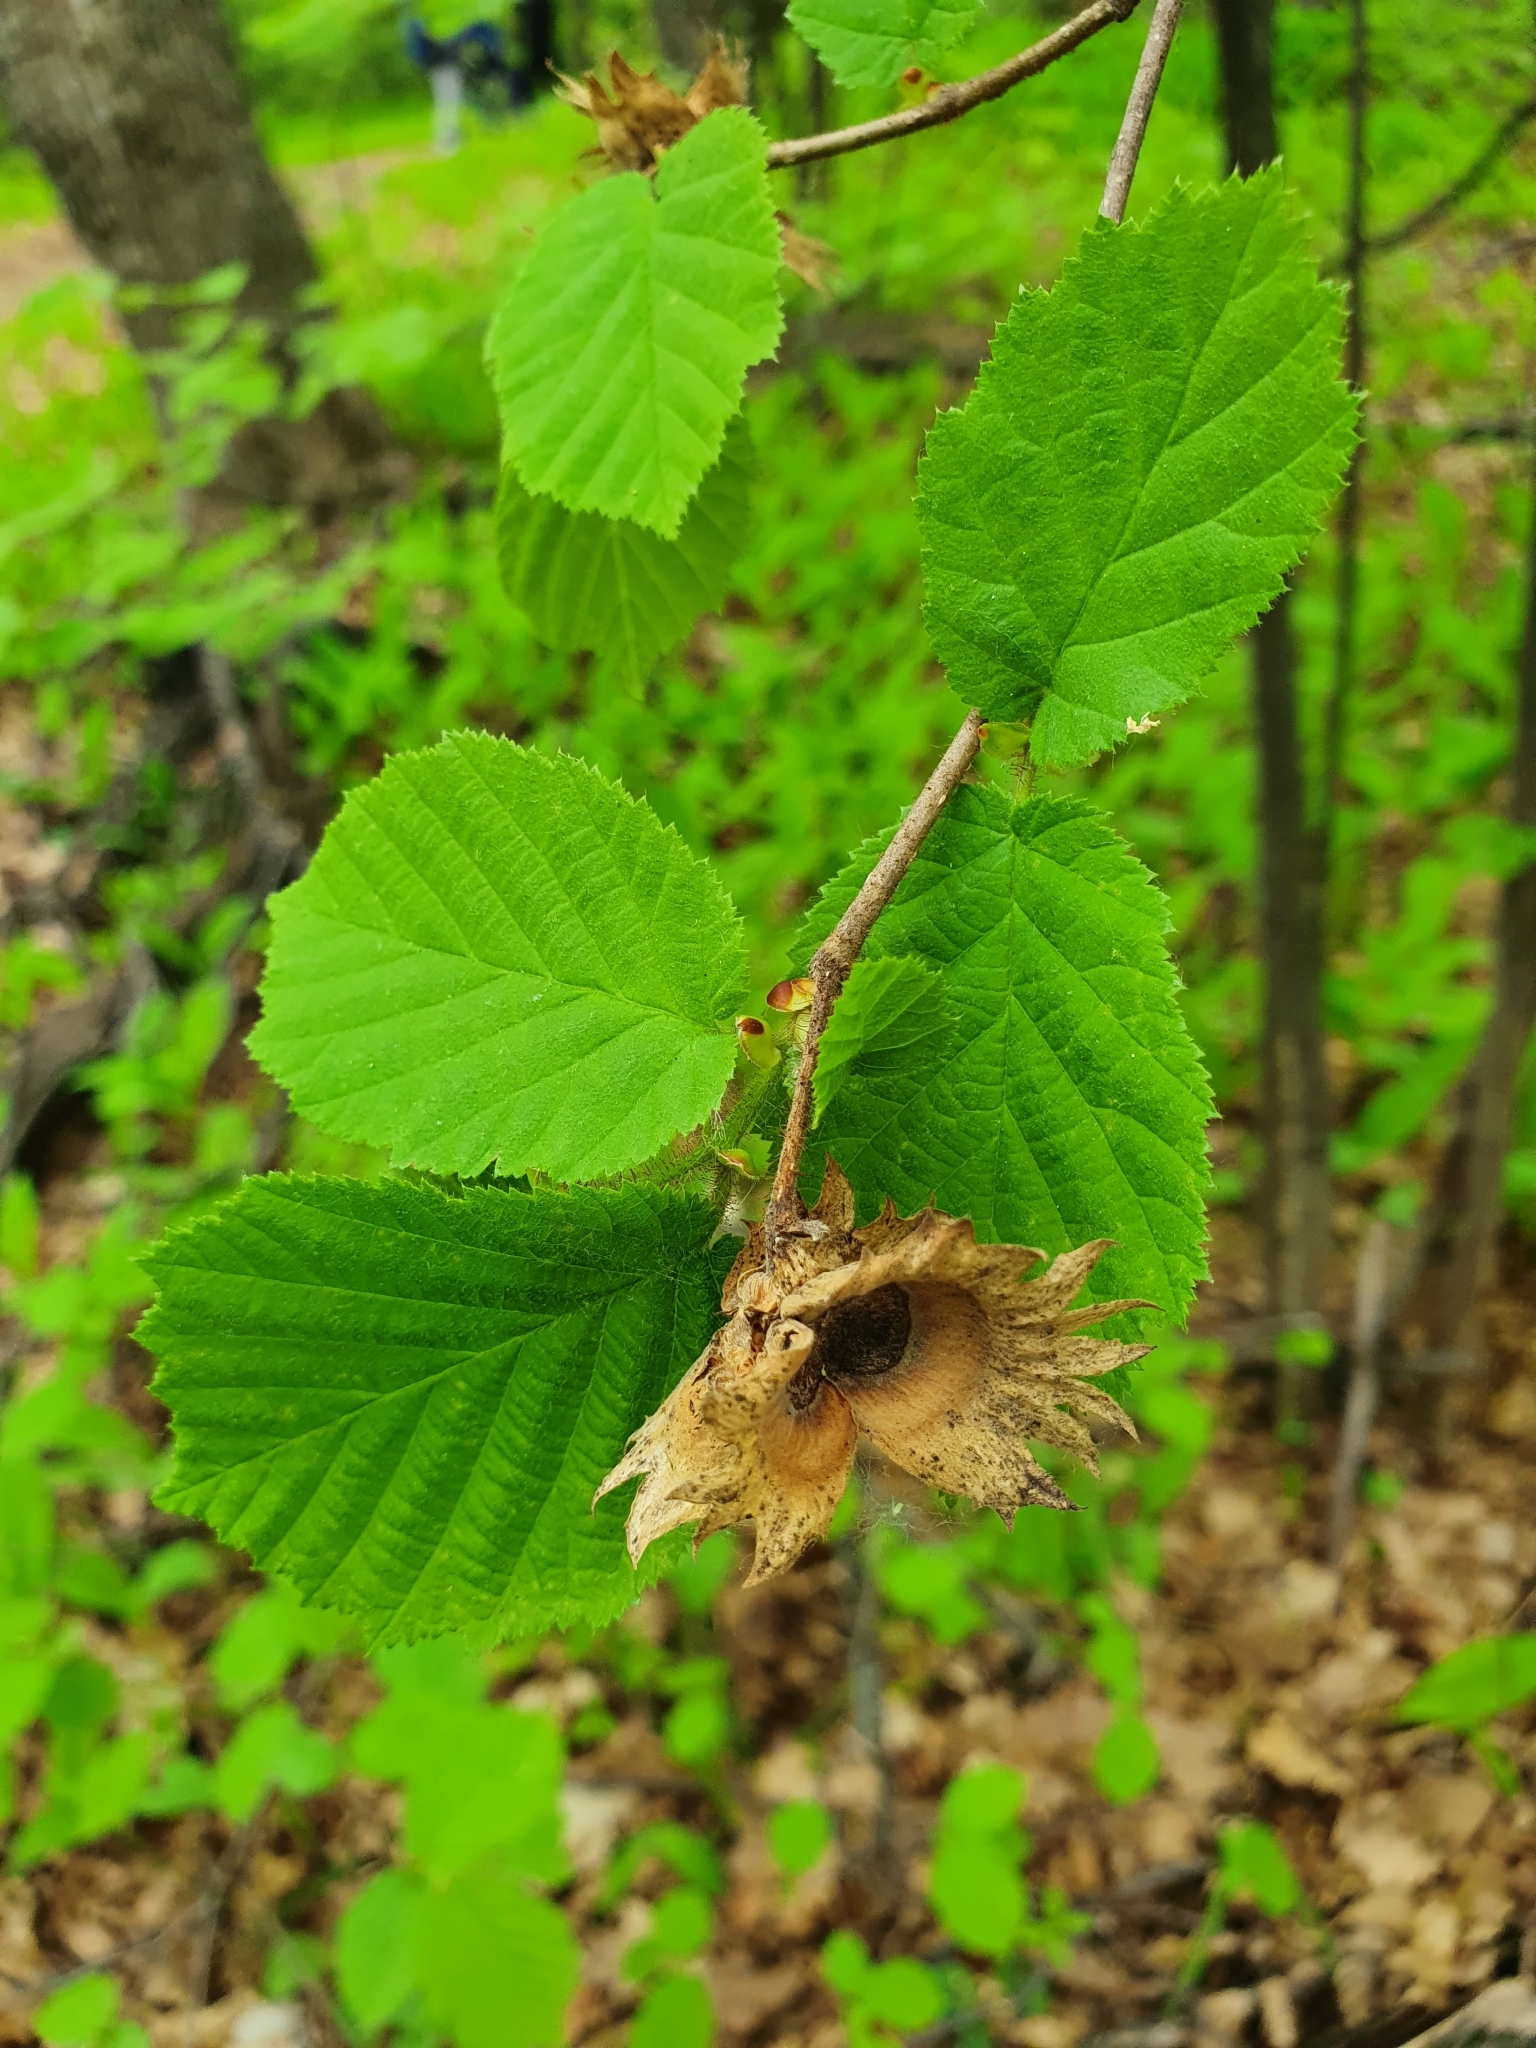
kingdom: Plantae
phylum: Tracheophyta
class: Magnoliopsida
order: Fagales
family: Betulaceae
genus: Corylus
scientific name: Corylus avellana
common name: European hazel
